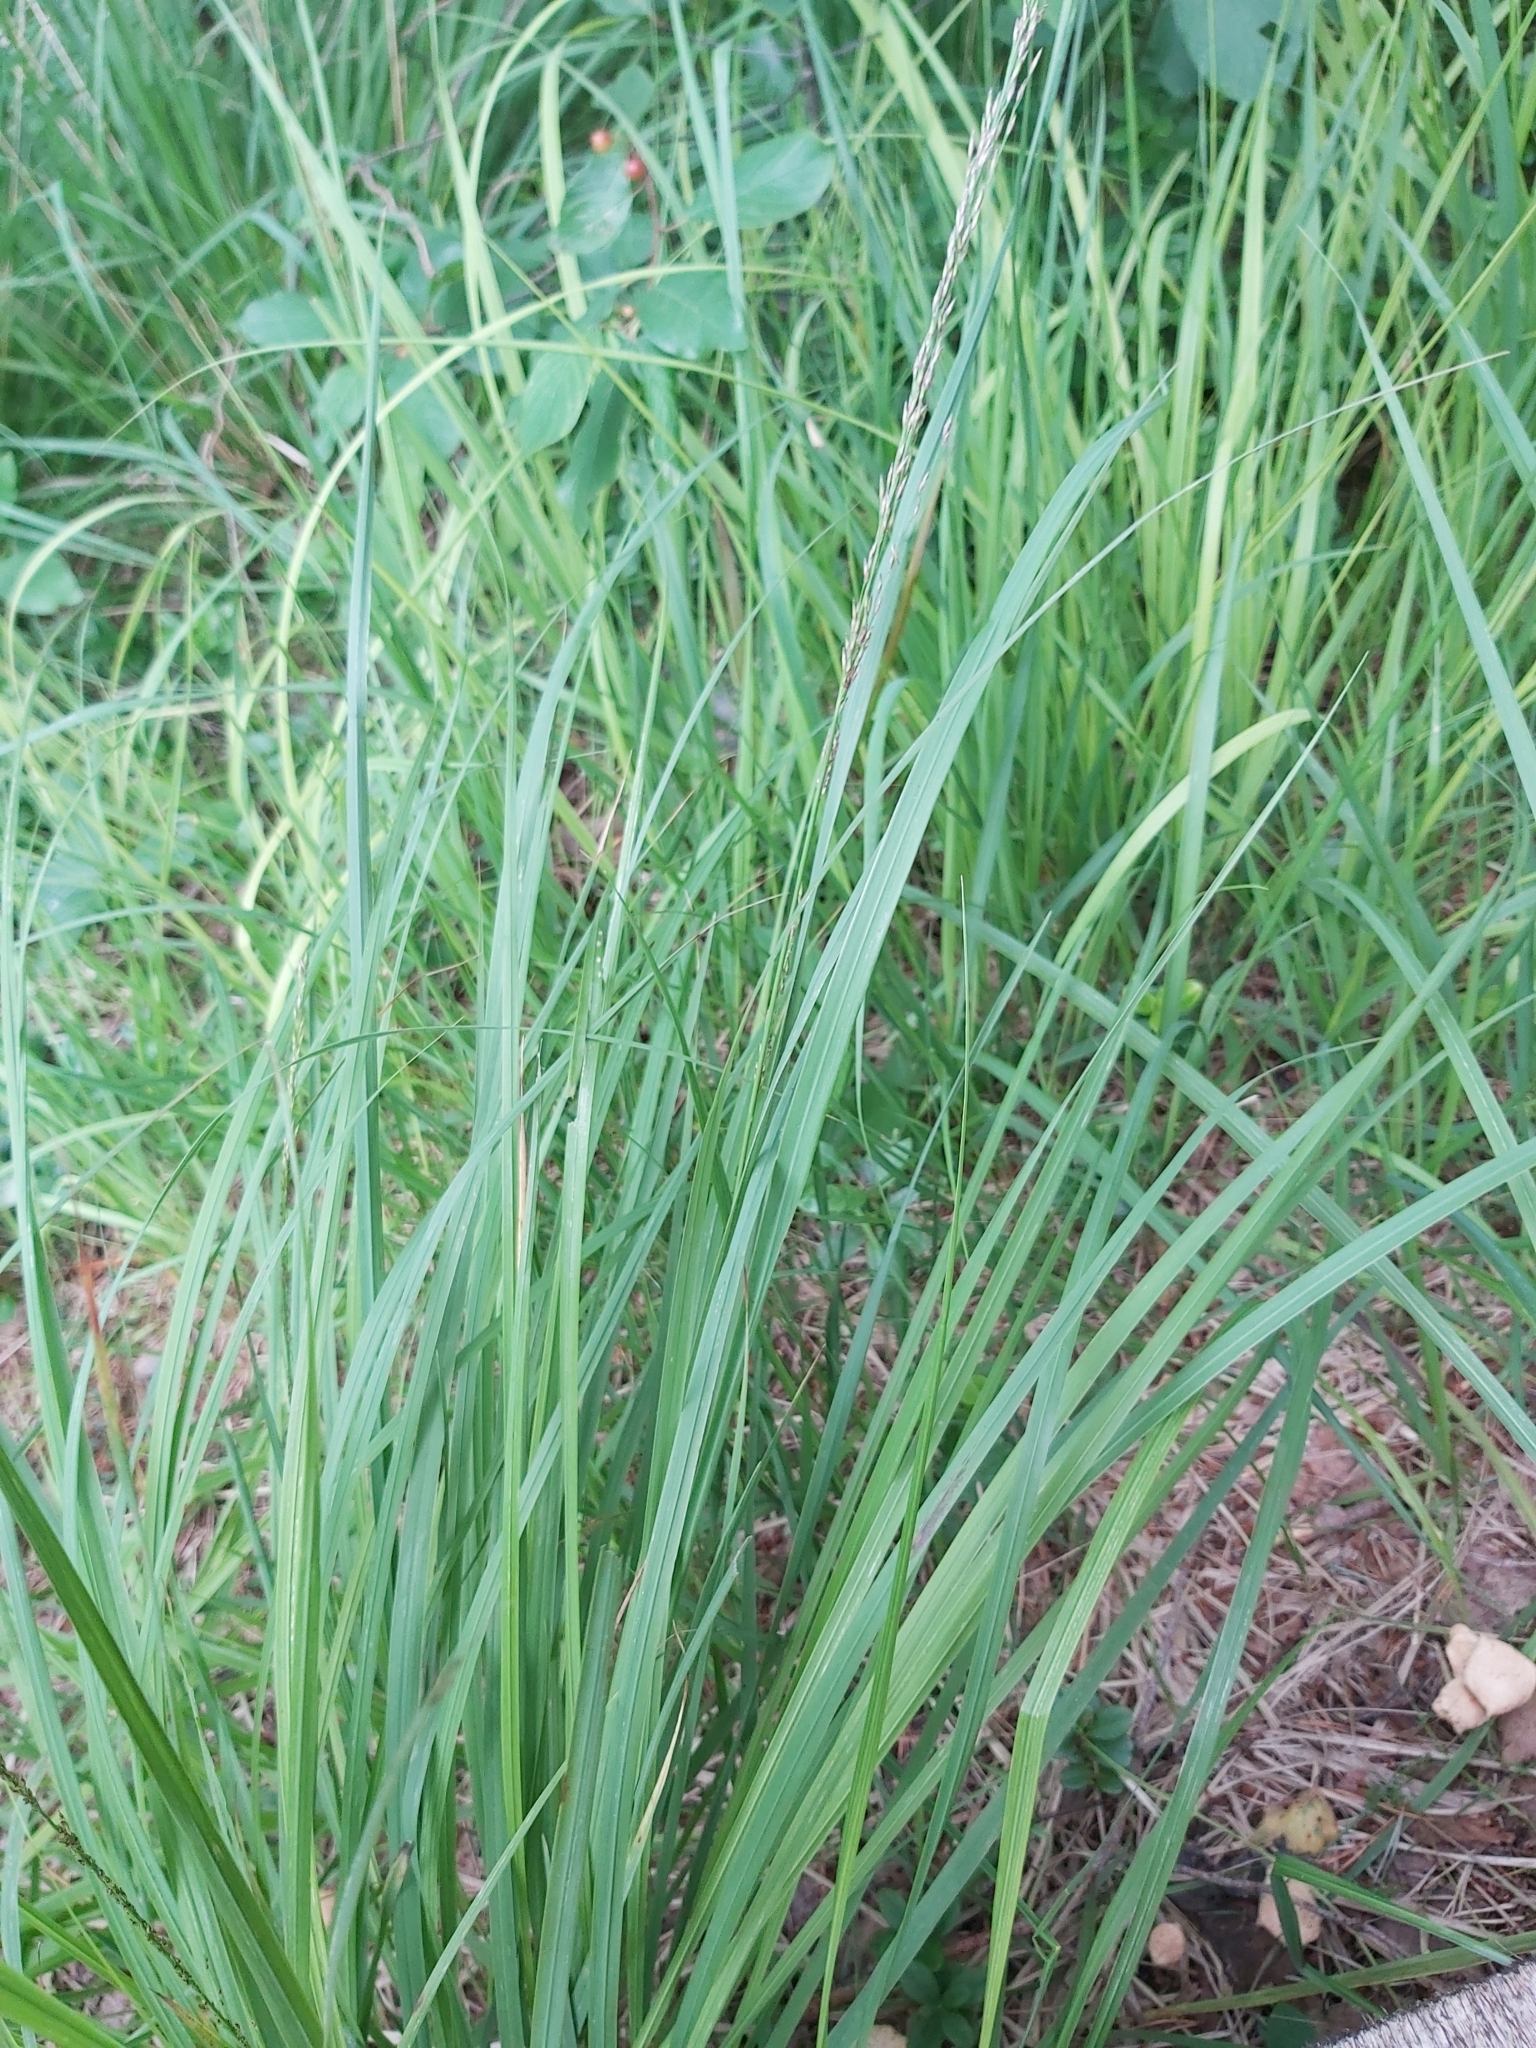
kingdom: Plantae
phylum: Tracheophyta
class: Liliopsida
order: Poales
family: Poaceae
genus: Molinia
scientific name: Molinia caerulea
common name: Purple moor-grass
